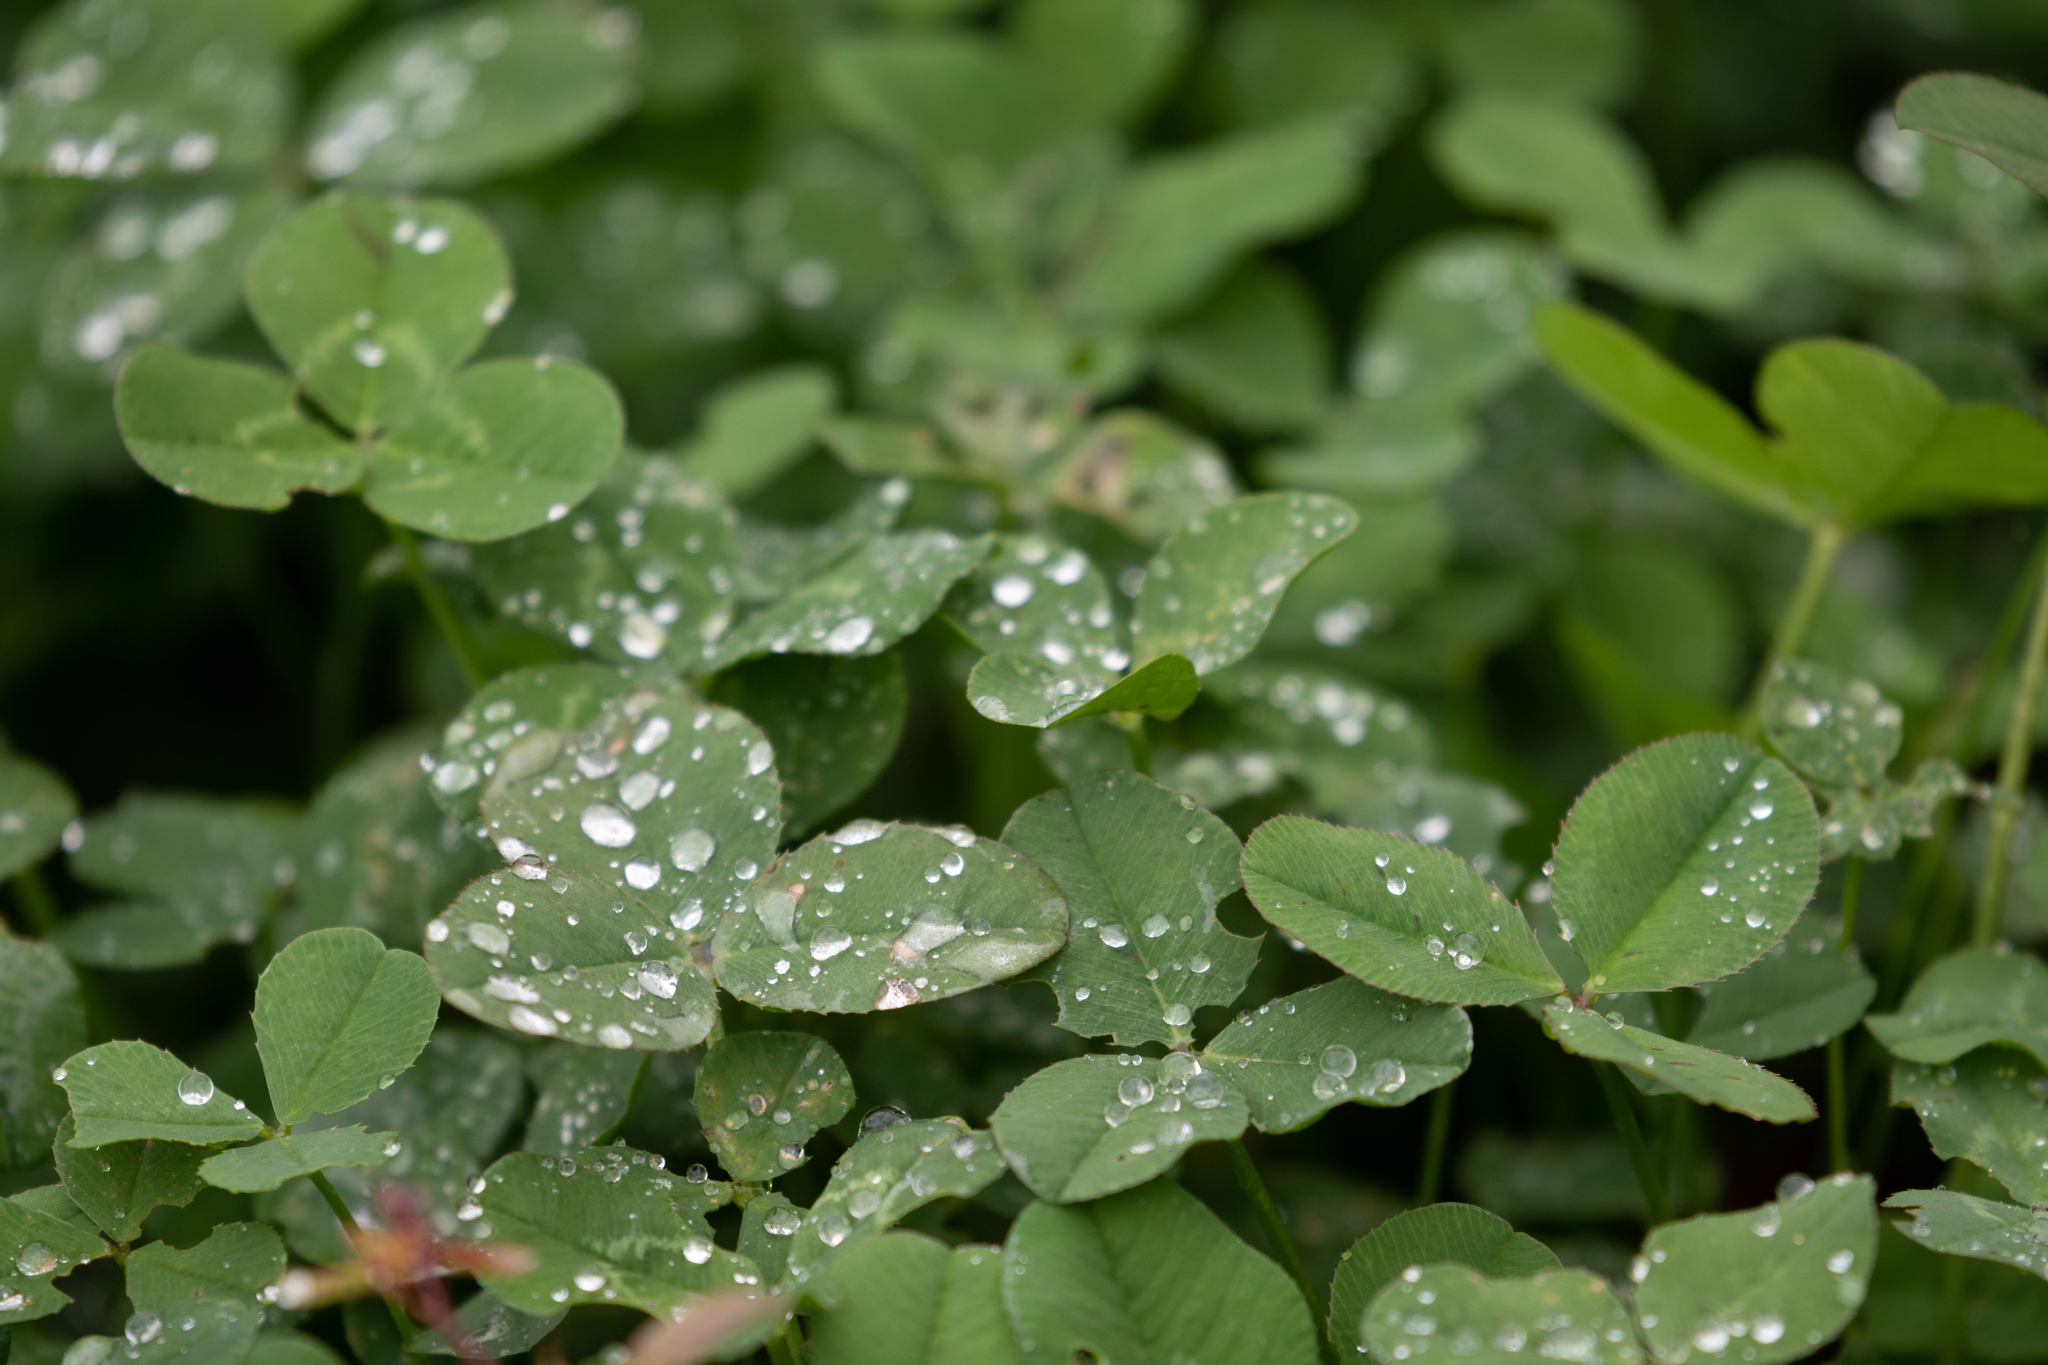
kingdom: Plantae
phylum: Tracheophyta
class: Magnoliopsida
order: Fabales
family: Fabaceae
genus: Trifolium
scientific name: Trifolium repens
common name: White clover
